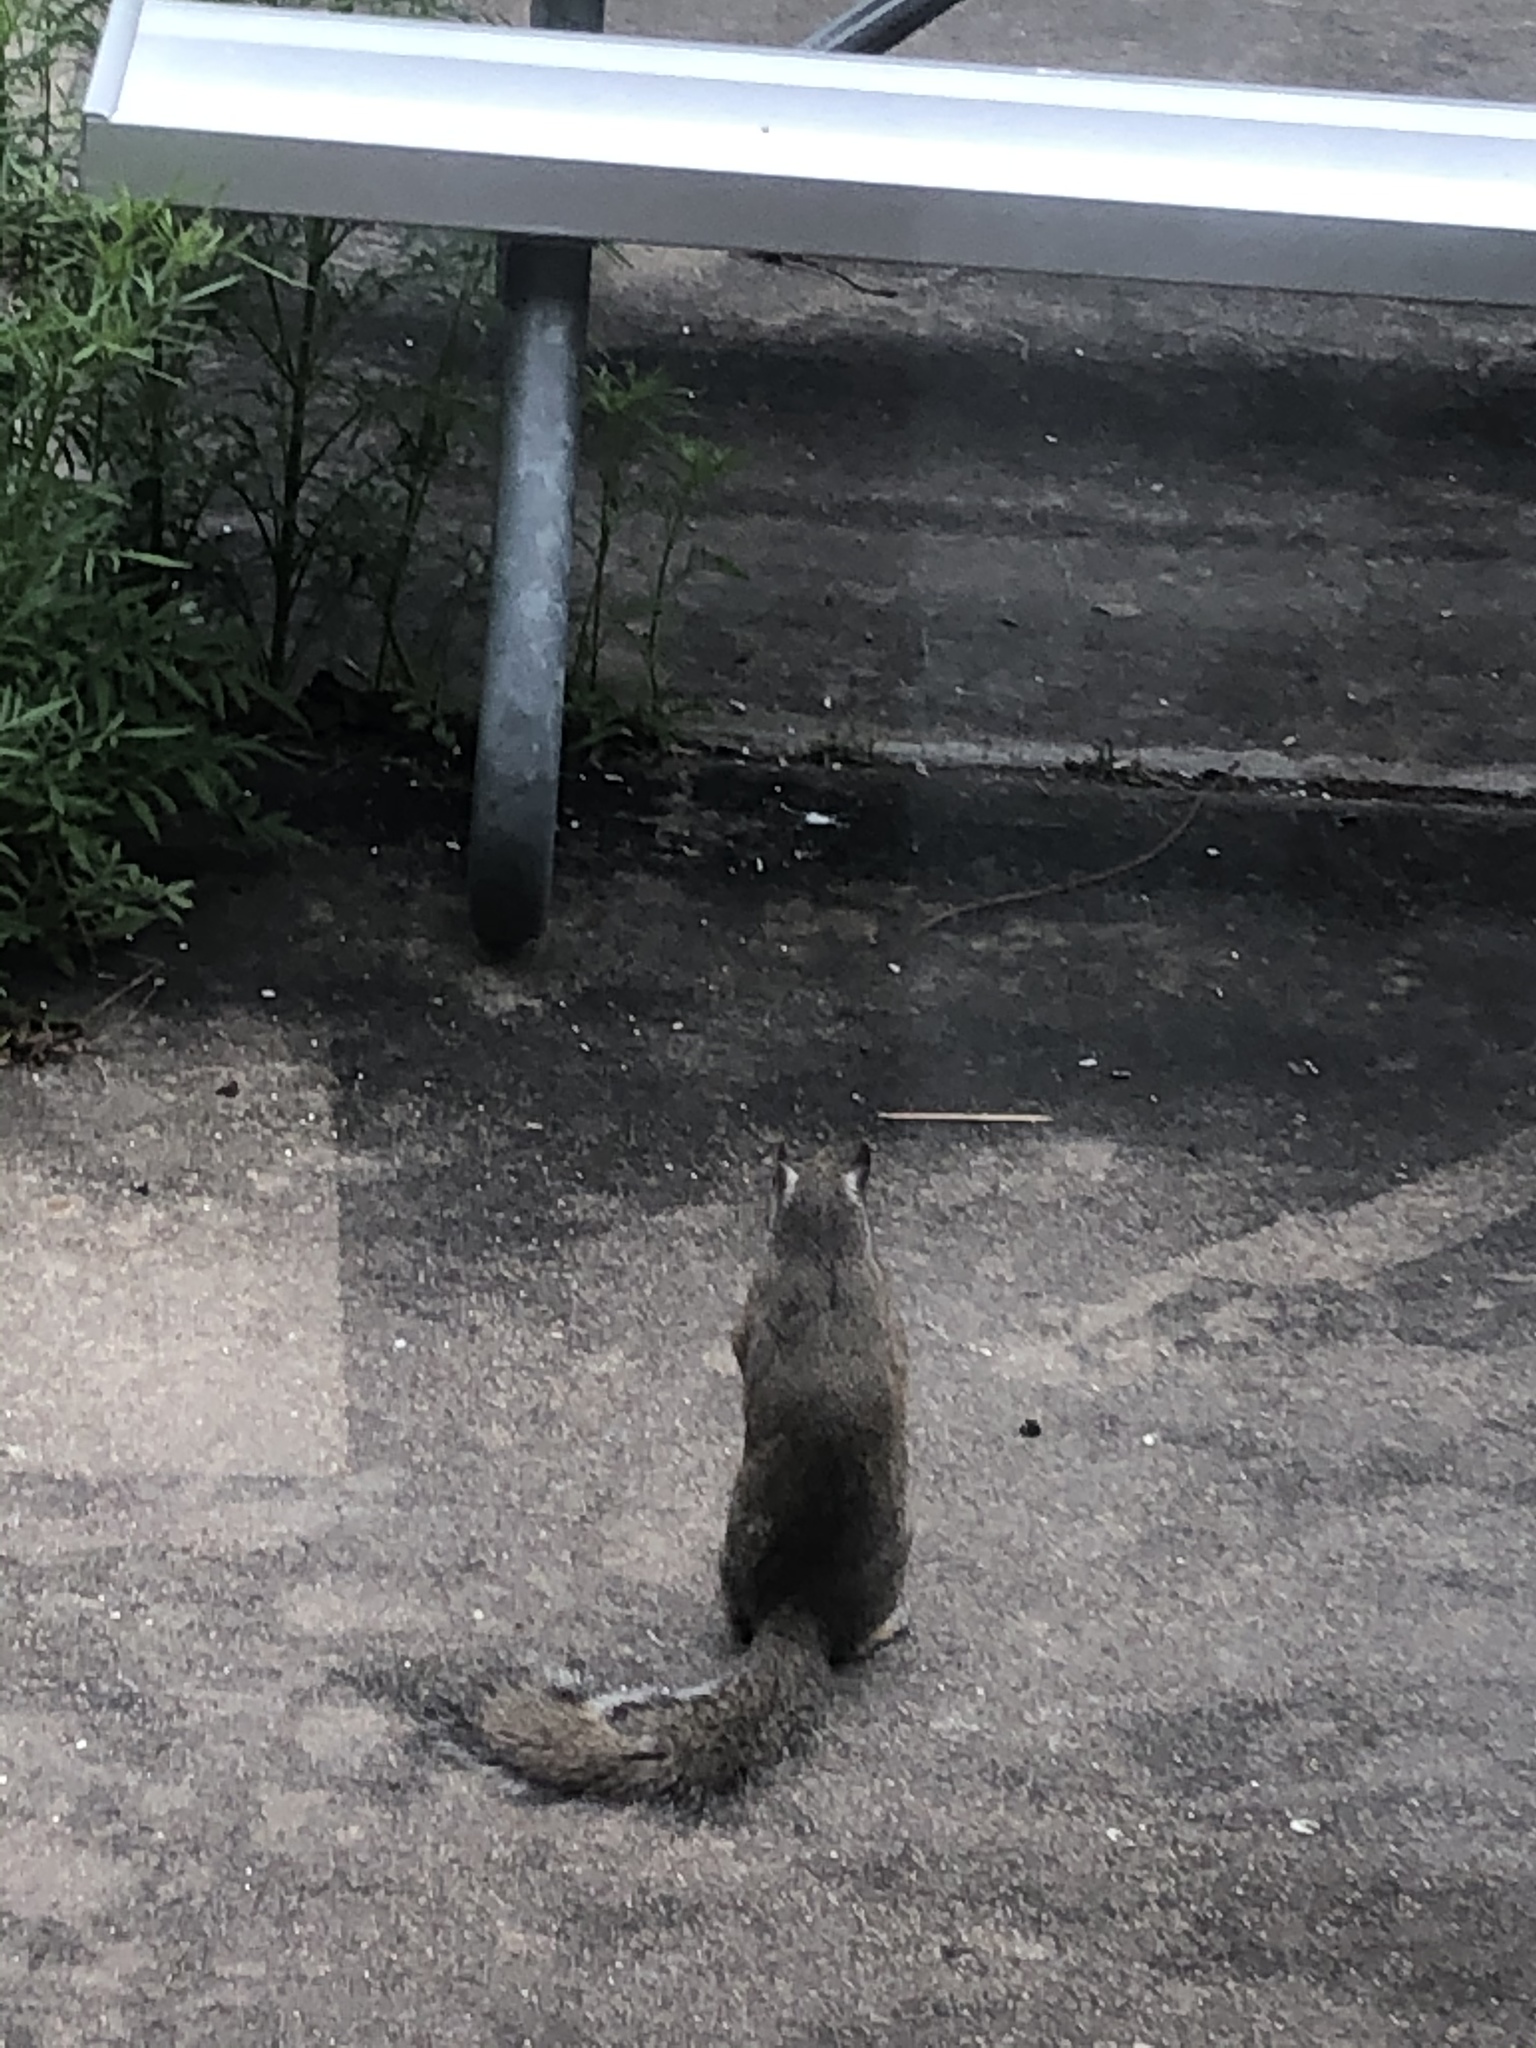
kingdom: Animalia
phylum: Chordata
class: Mammalia
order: Rodentia
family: Sciuridae
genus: Sciurus
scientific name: Sciurus carolinensis
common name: Eastern gray squirrel
